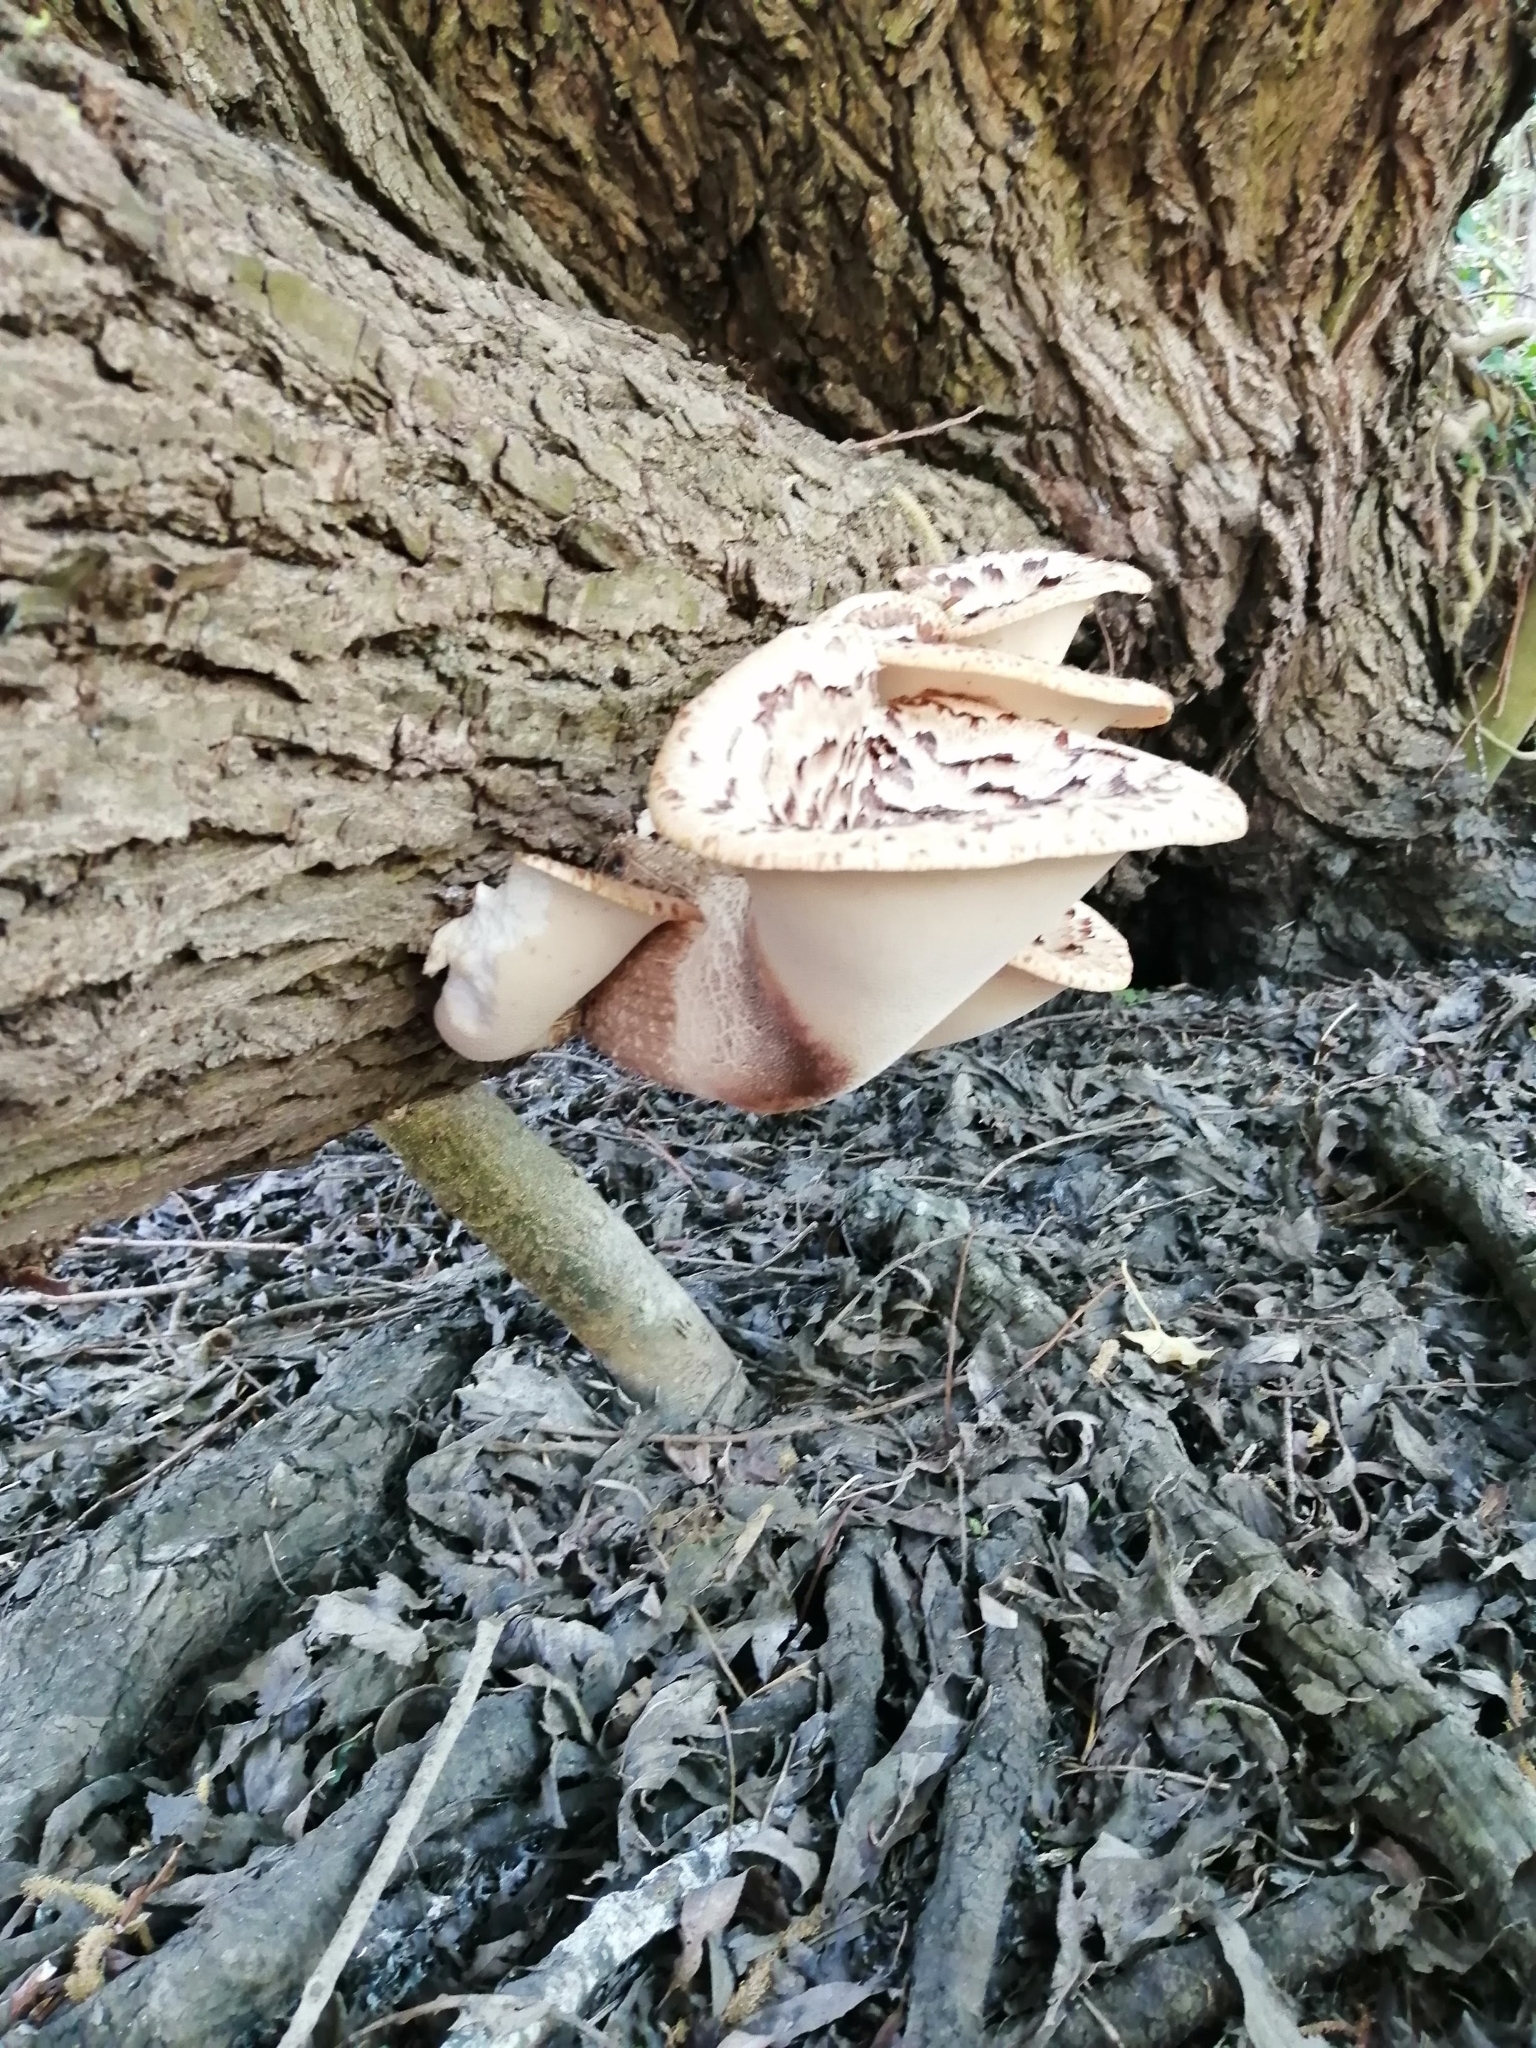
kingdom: Fungi
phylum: Basidiomycota
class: Agaricomycetes
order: Polyporales
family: Polyporaceae
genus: Cerioporus
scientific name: Cerioporus squamosus
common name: Dryad's saddle
